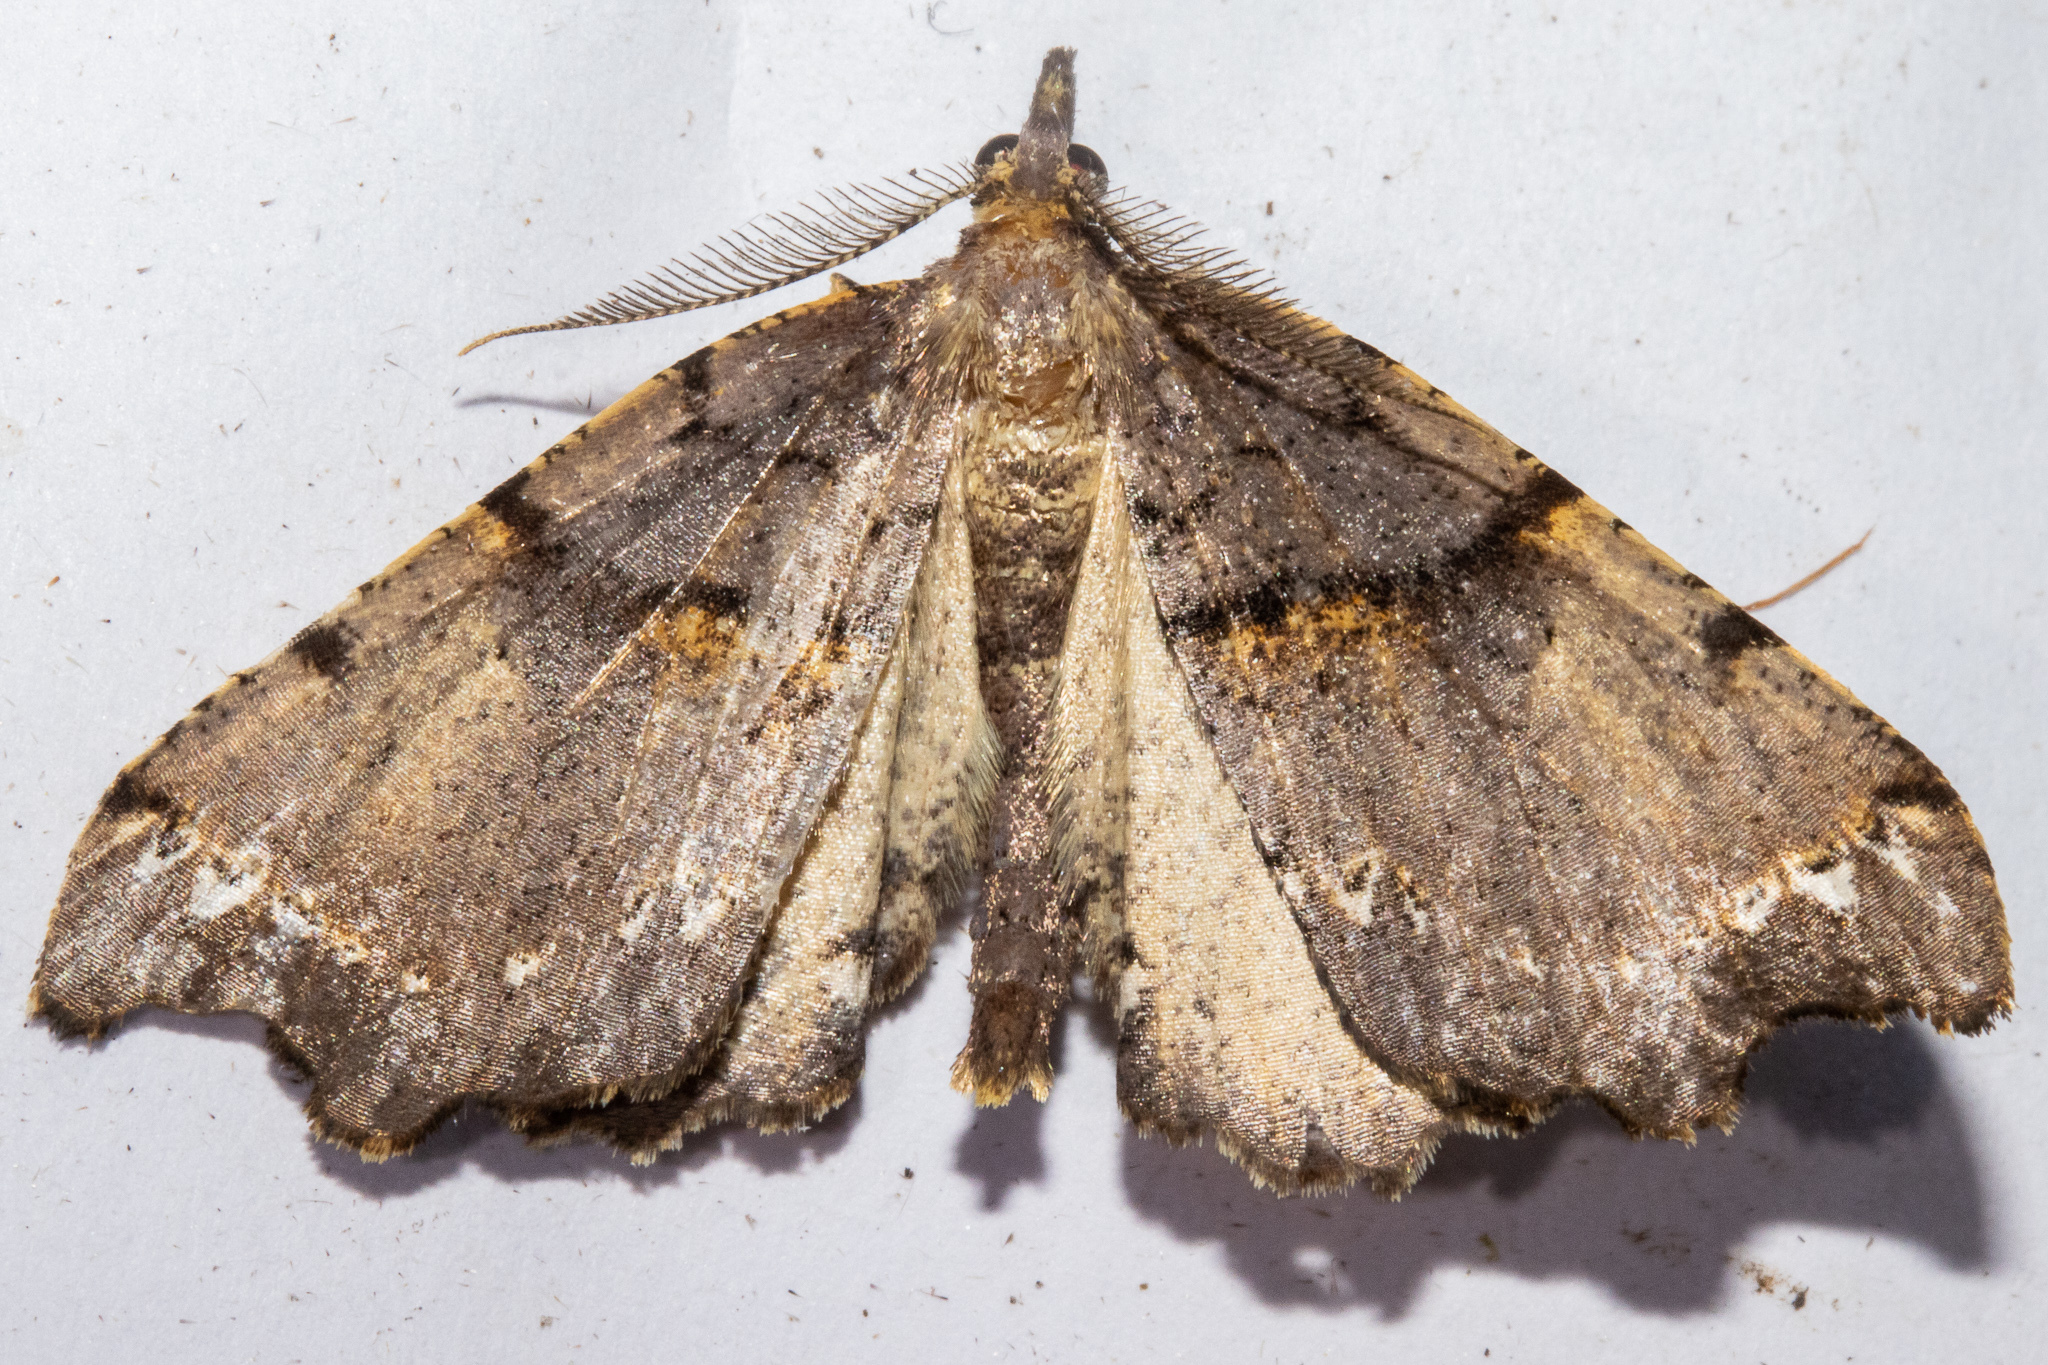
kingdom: Animalia
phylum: Arthropoda
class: Insecta
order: Lepidoptera
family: Geometridae
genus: Chalastra
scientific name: Chalastra pellurgata
